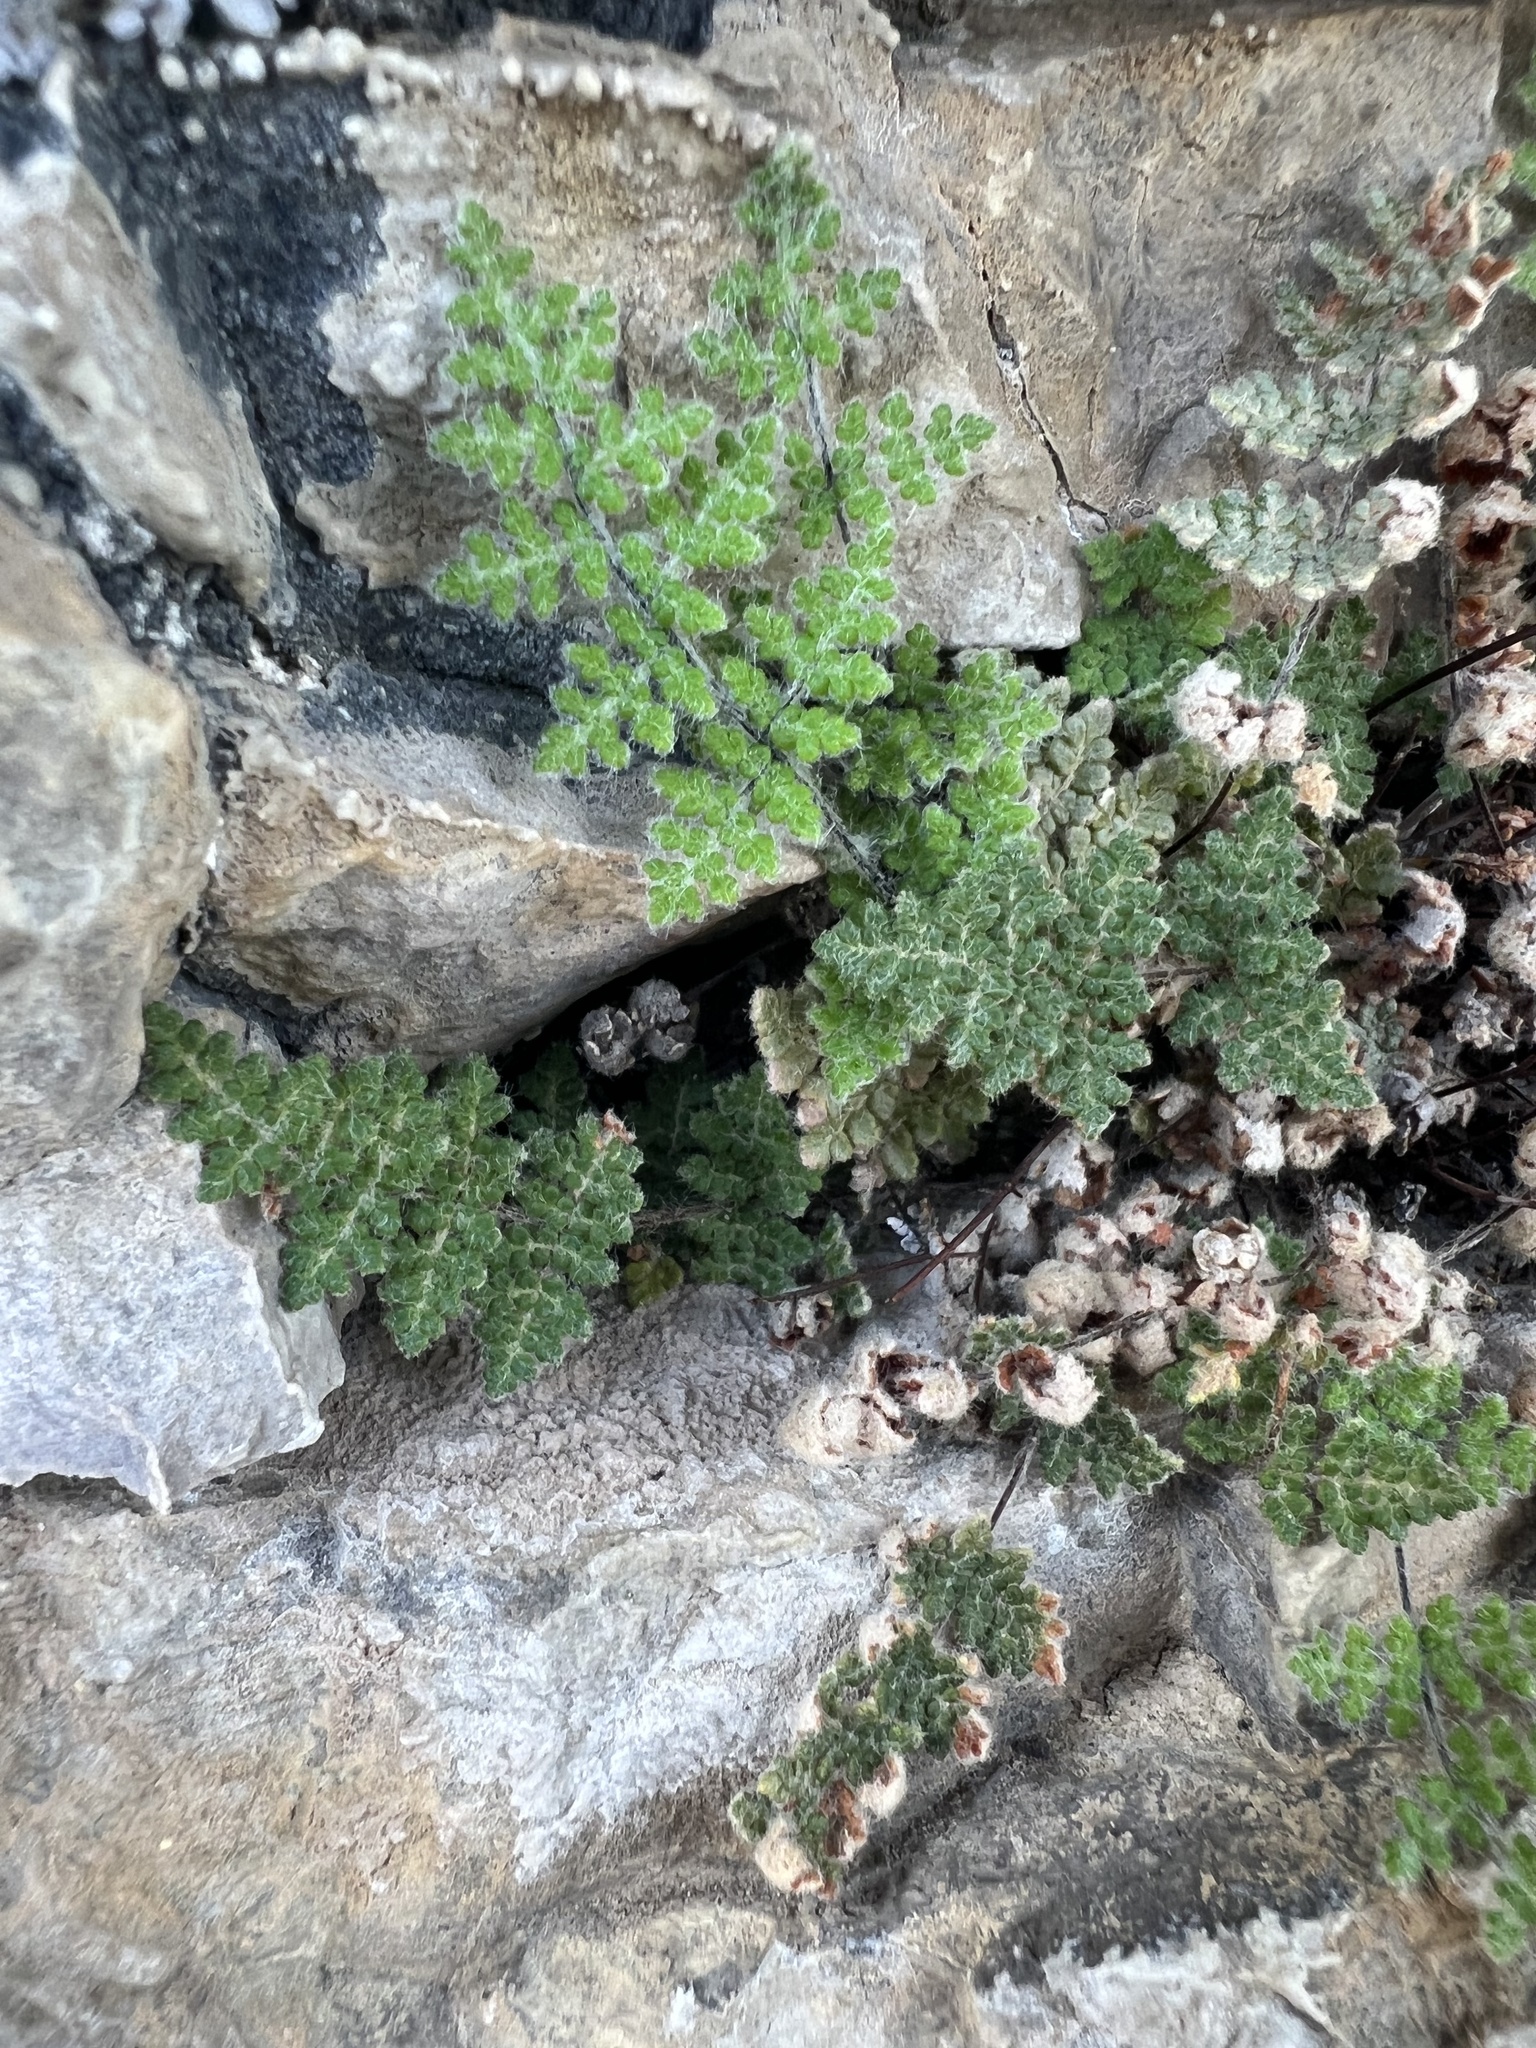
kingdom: Plantae
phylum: Tracheophyta
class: Polypodiopsida
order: Polypodiales
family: Pteridaceae
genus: Myriopteris
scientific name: Myriopteris gracilis
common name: Fee's lip fern
